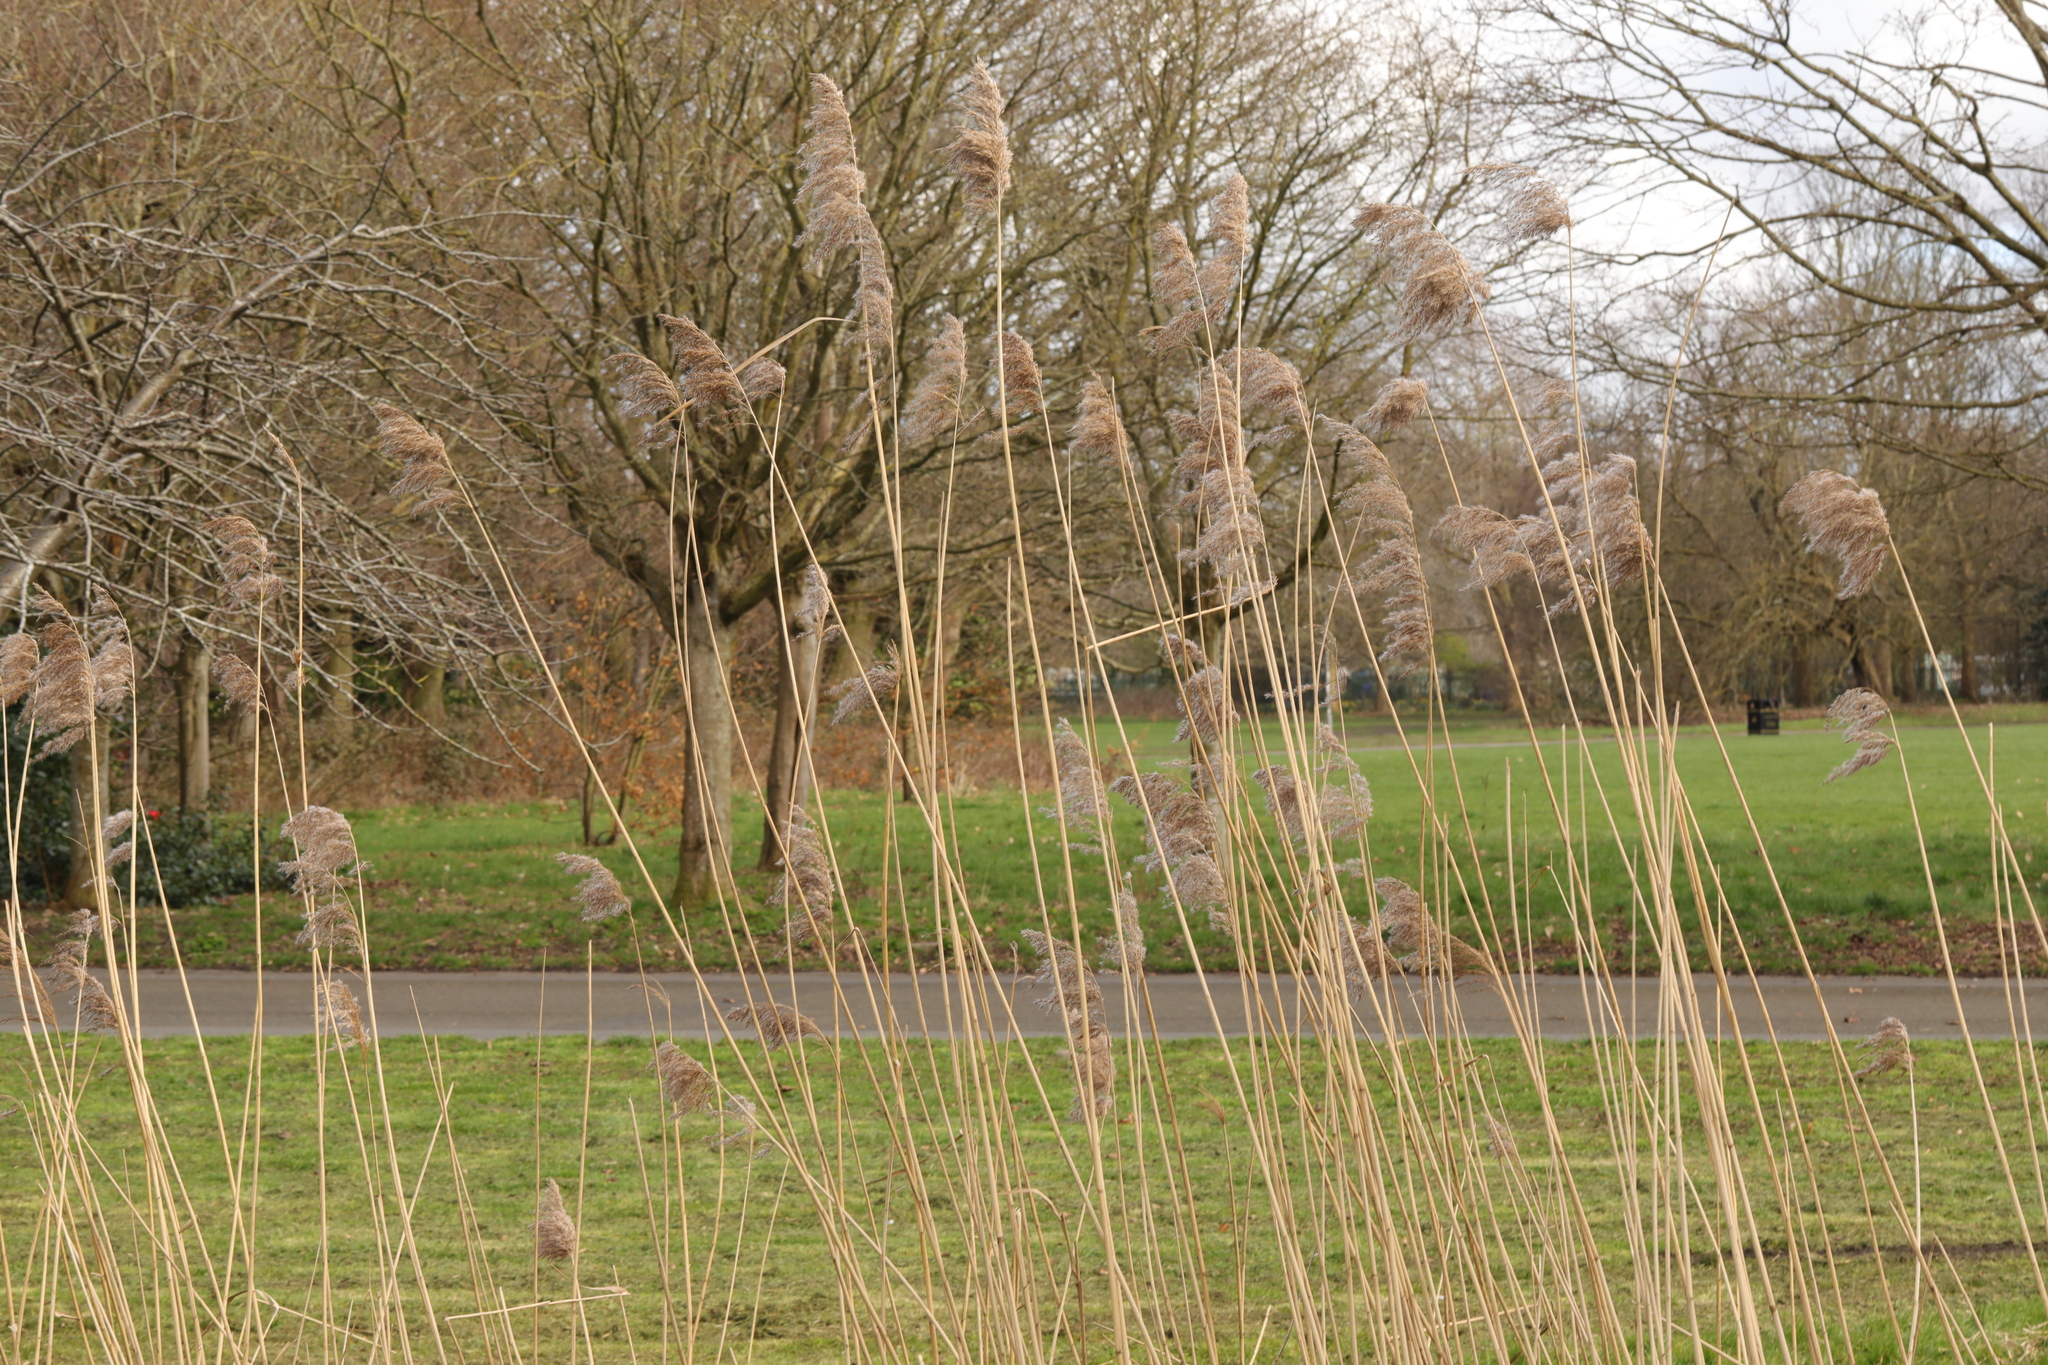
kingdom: Plantae
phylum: Tracheophyta
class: Liliopsida
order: Poales
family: Poaceae
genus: Phragmites
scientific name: Phragmites australis
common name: Common reed
